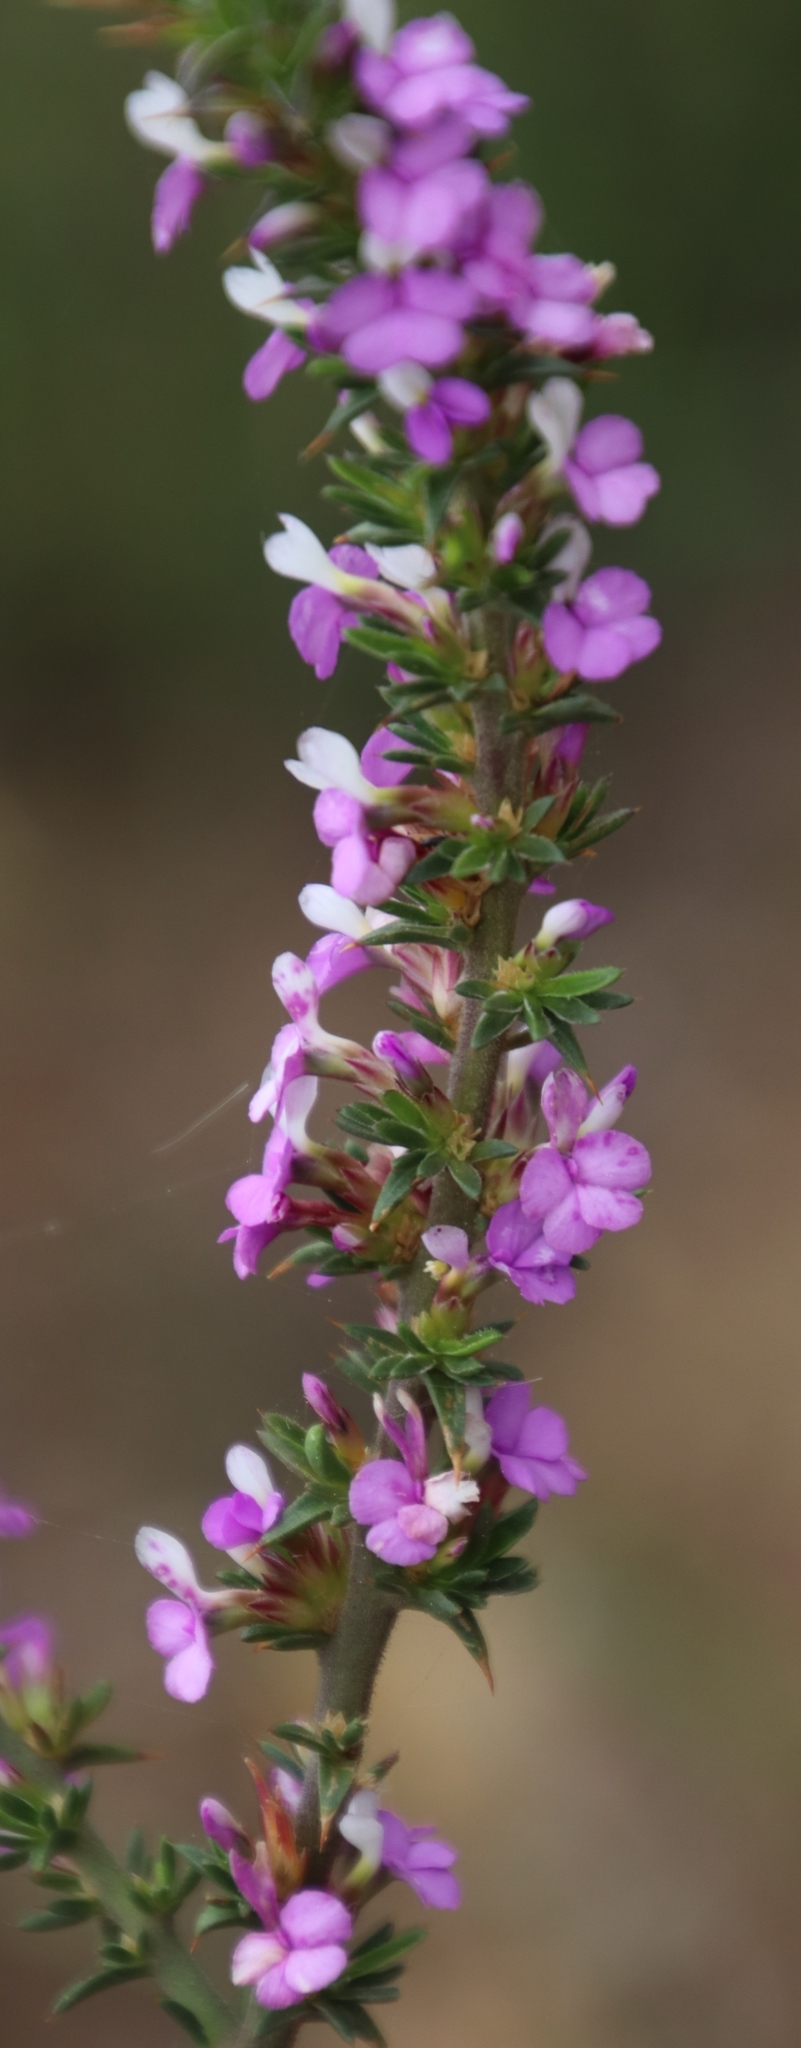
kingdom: Plantae
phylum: Tracheophyta
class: Magnoliopsida
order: Fabales
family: Polygalaceae
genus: Muraltia
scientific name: Muraltia heisteria
